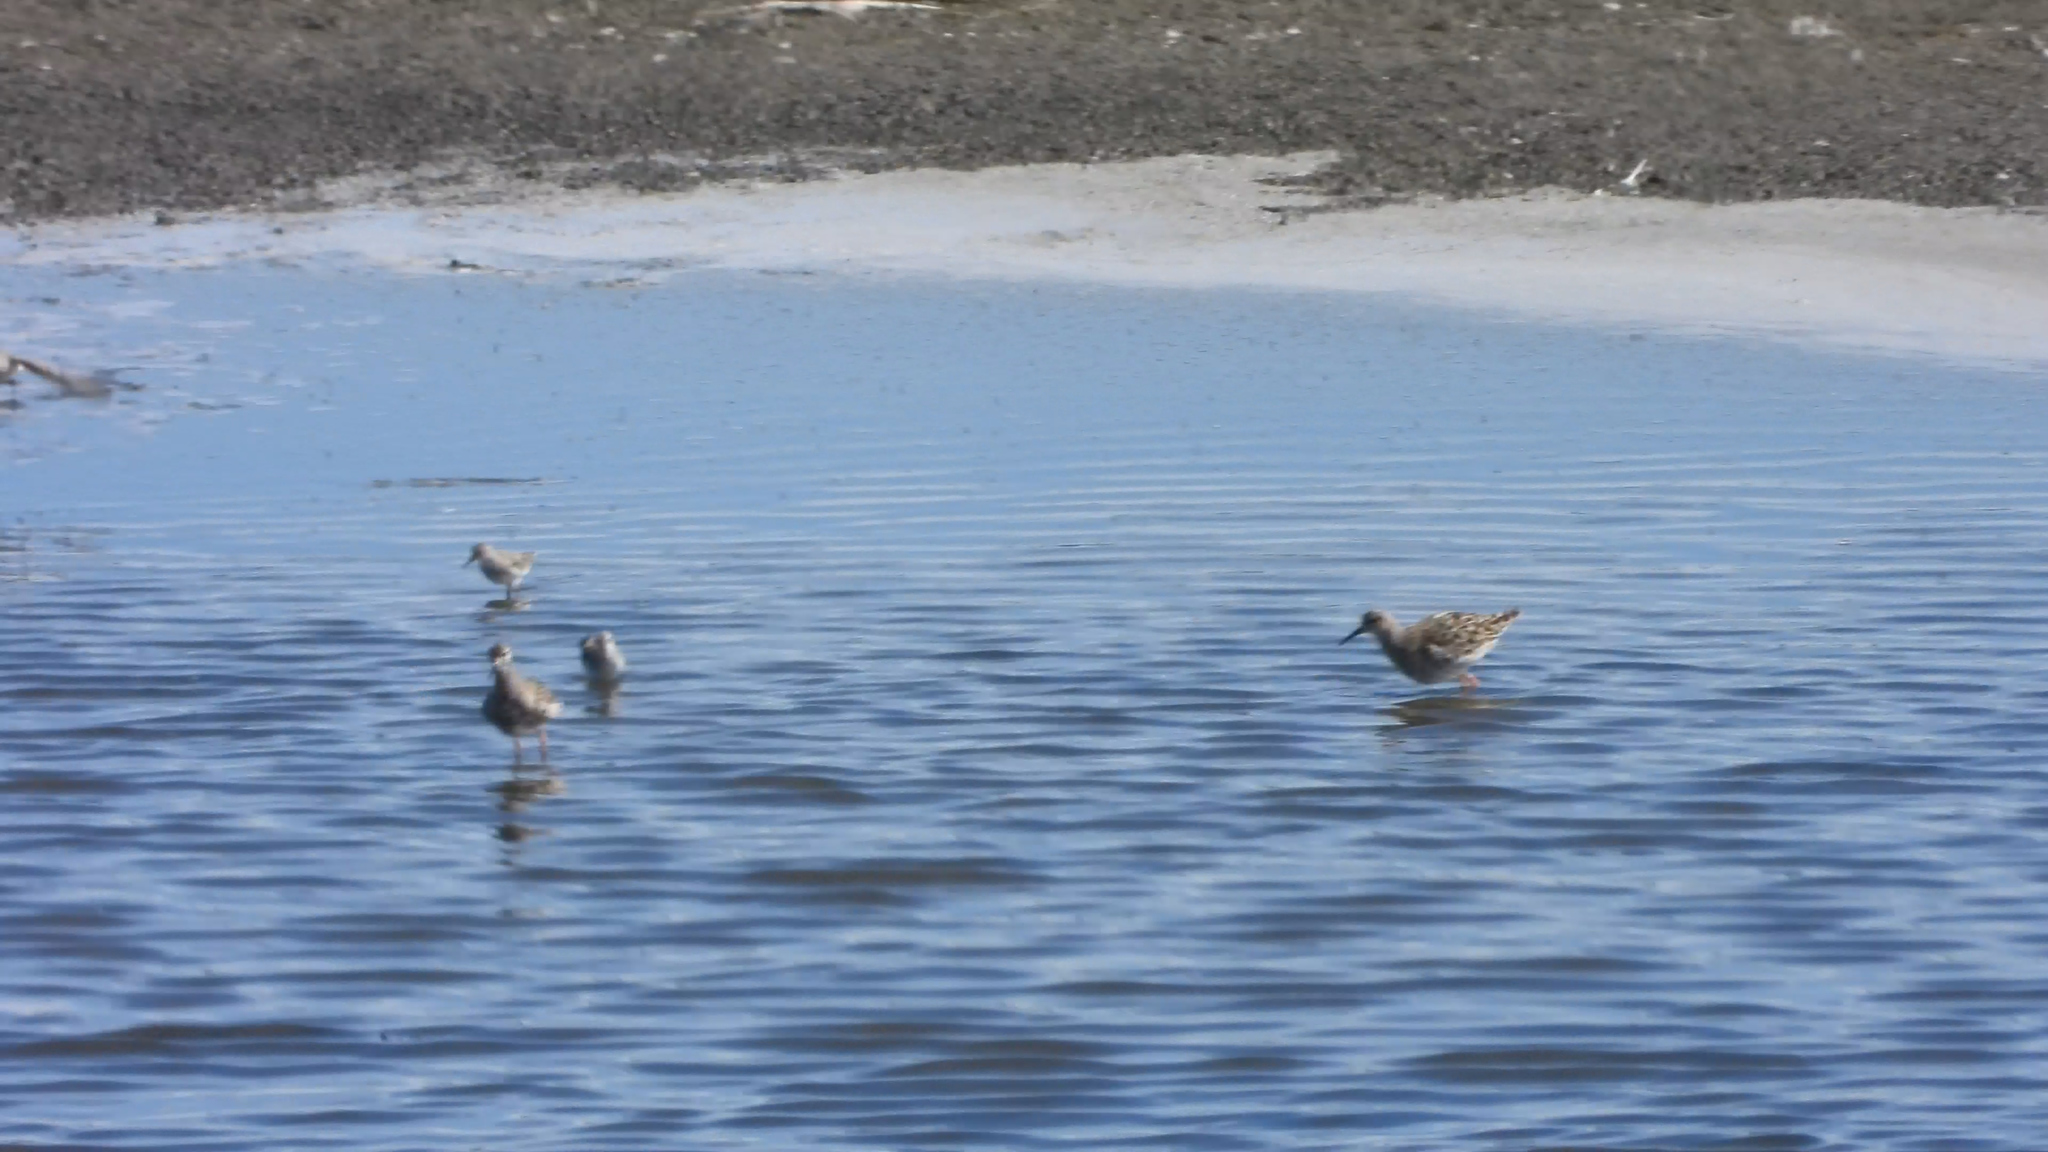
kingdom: Animalia
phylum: Chordata
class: Aves
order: Charadriiformes
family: Scolopacidae
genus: Calidris
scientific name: Calidris pugnax
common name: Ruff
